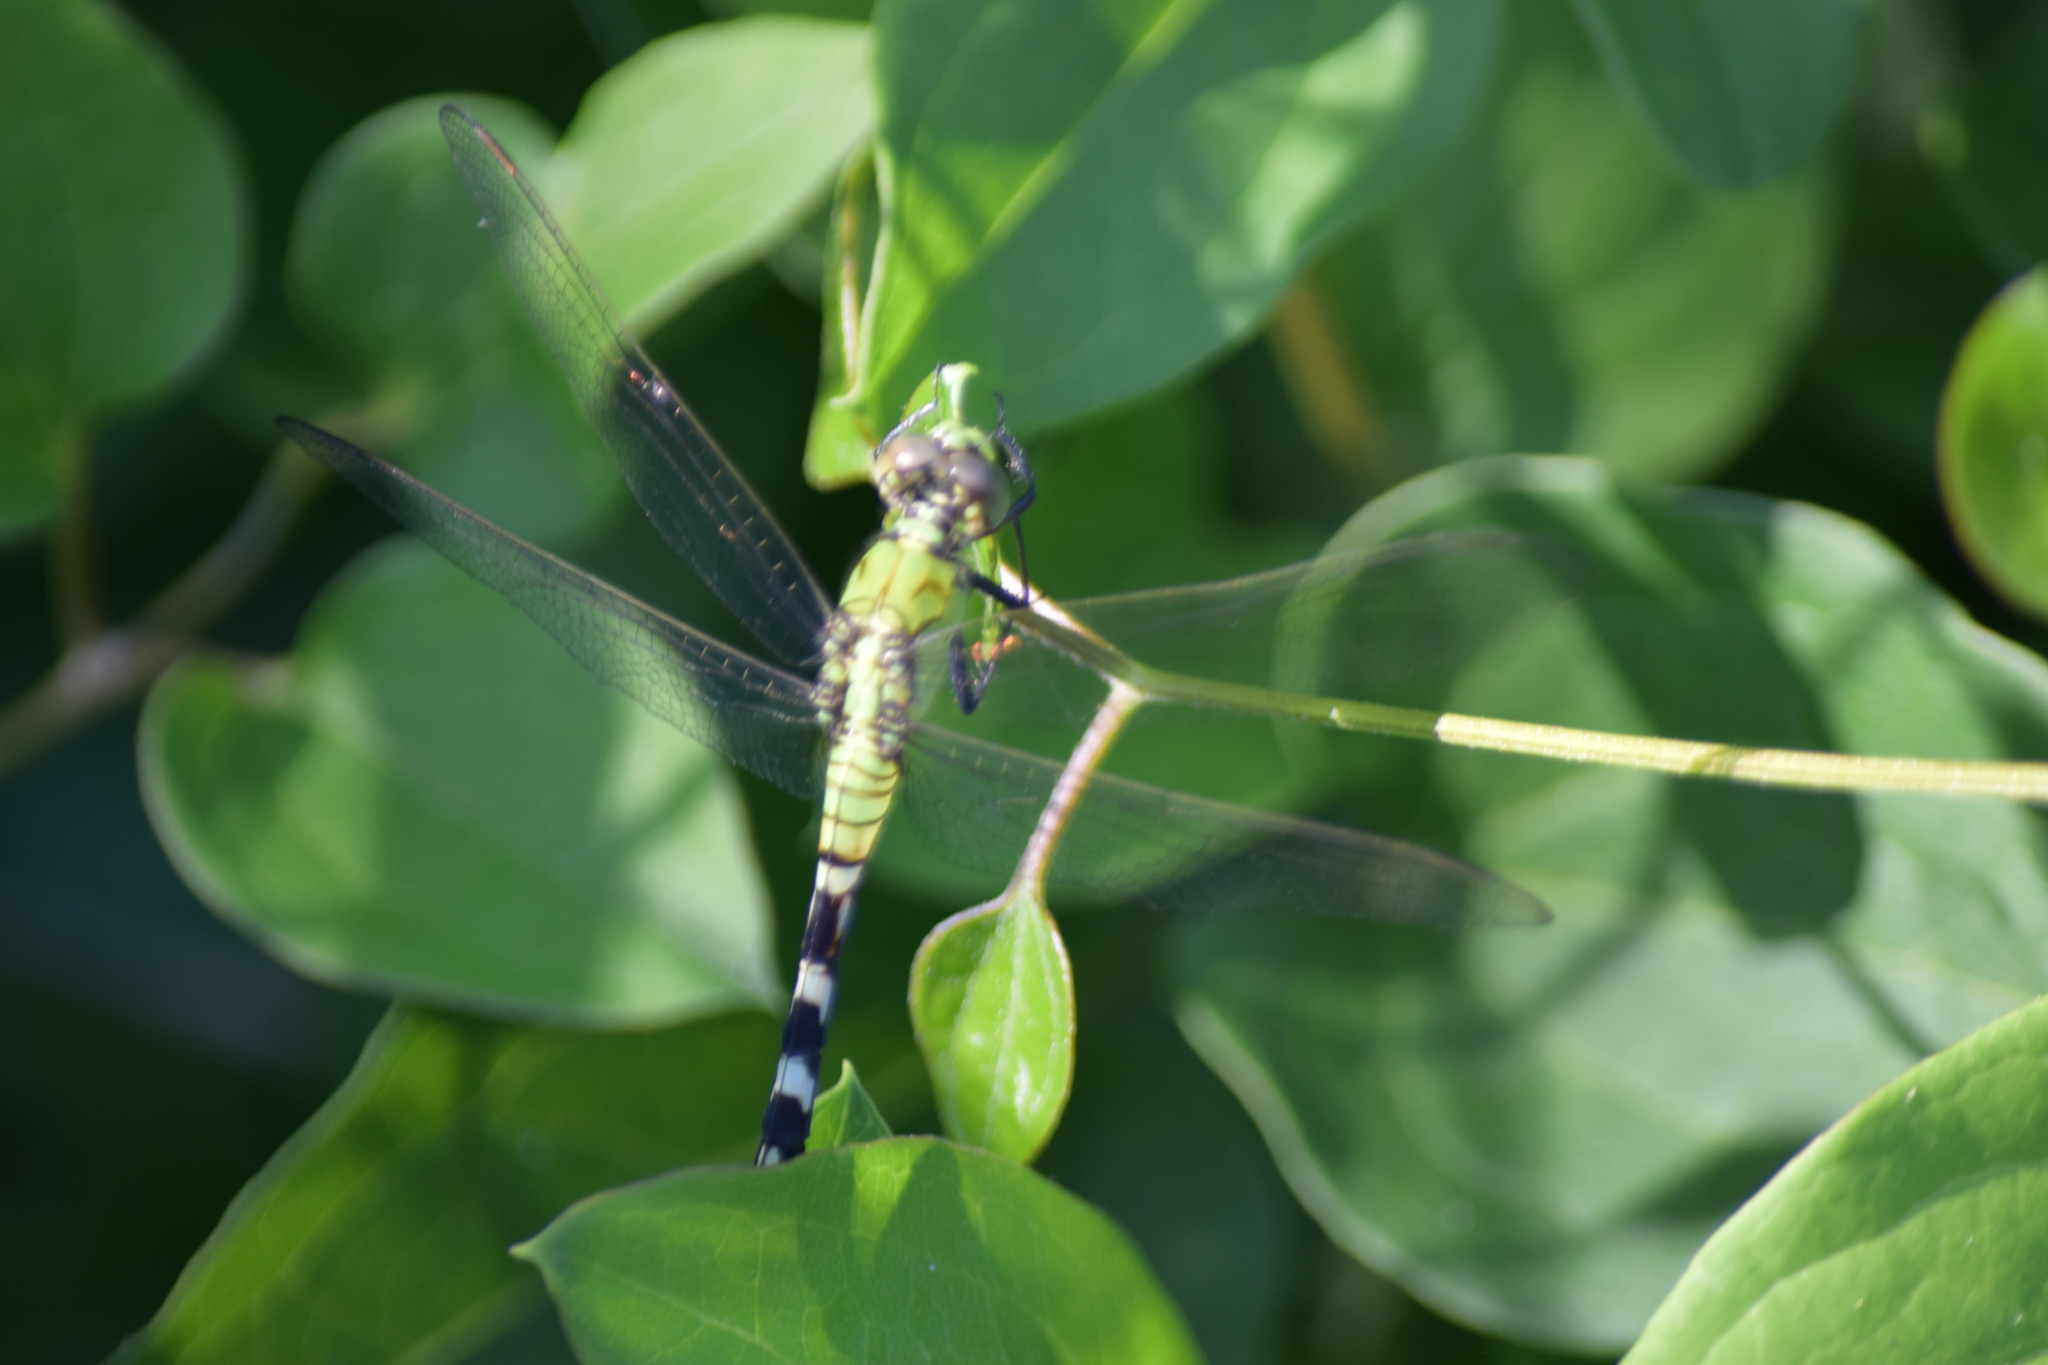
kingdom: Animalia
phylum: Arthropoda
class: Insecta
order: Odonata
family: Libellulidae
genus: Erythemis
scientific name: Erythemis simplicicollis
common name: Eastern pondhawk
